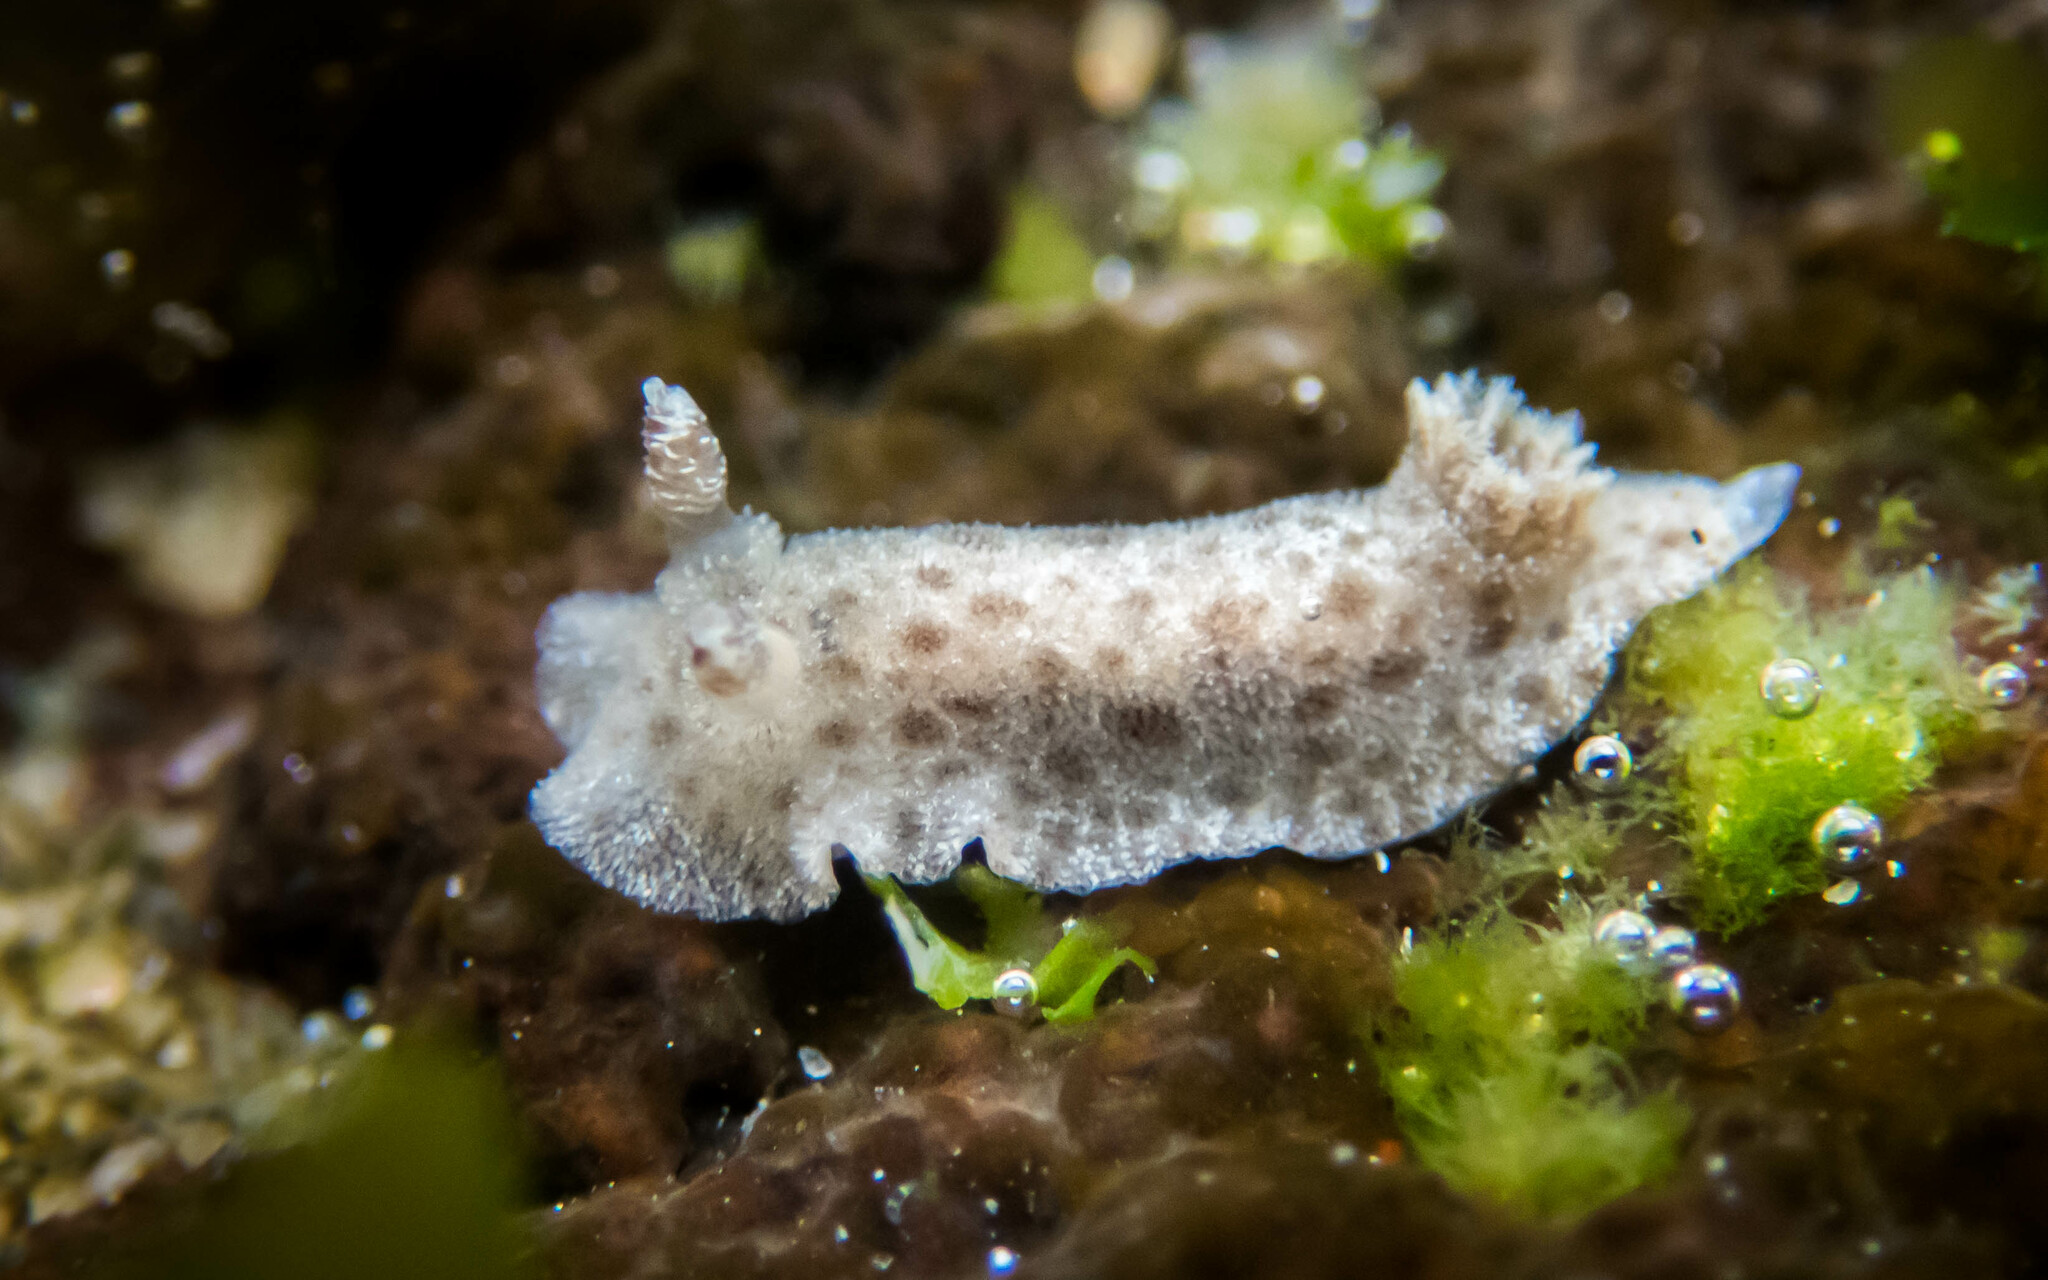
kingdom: Animalia
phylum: Mollusca
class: Gastropoda
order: Nudibranchia
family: Discodorididae
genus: Jorunna
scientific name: Jorunna pantherina
